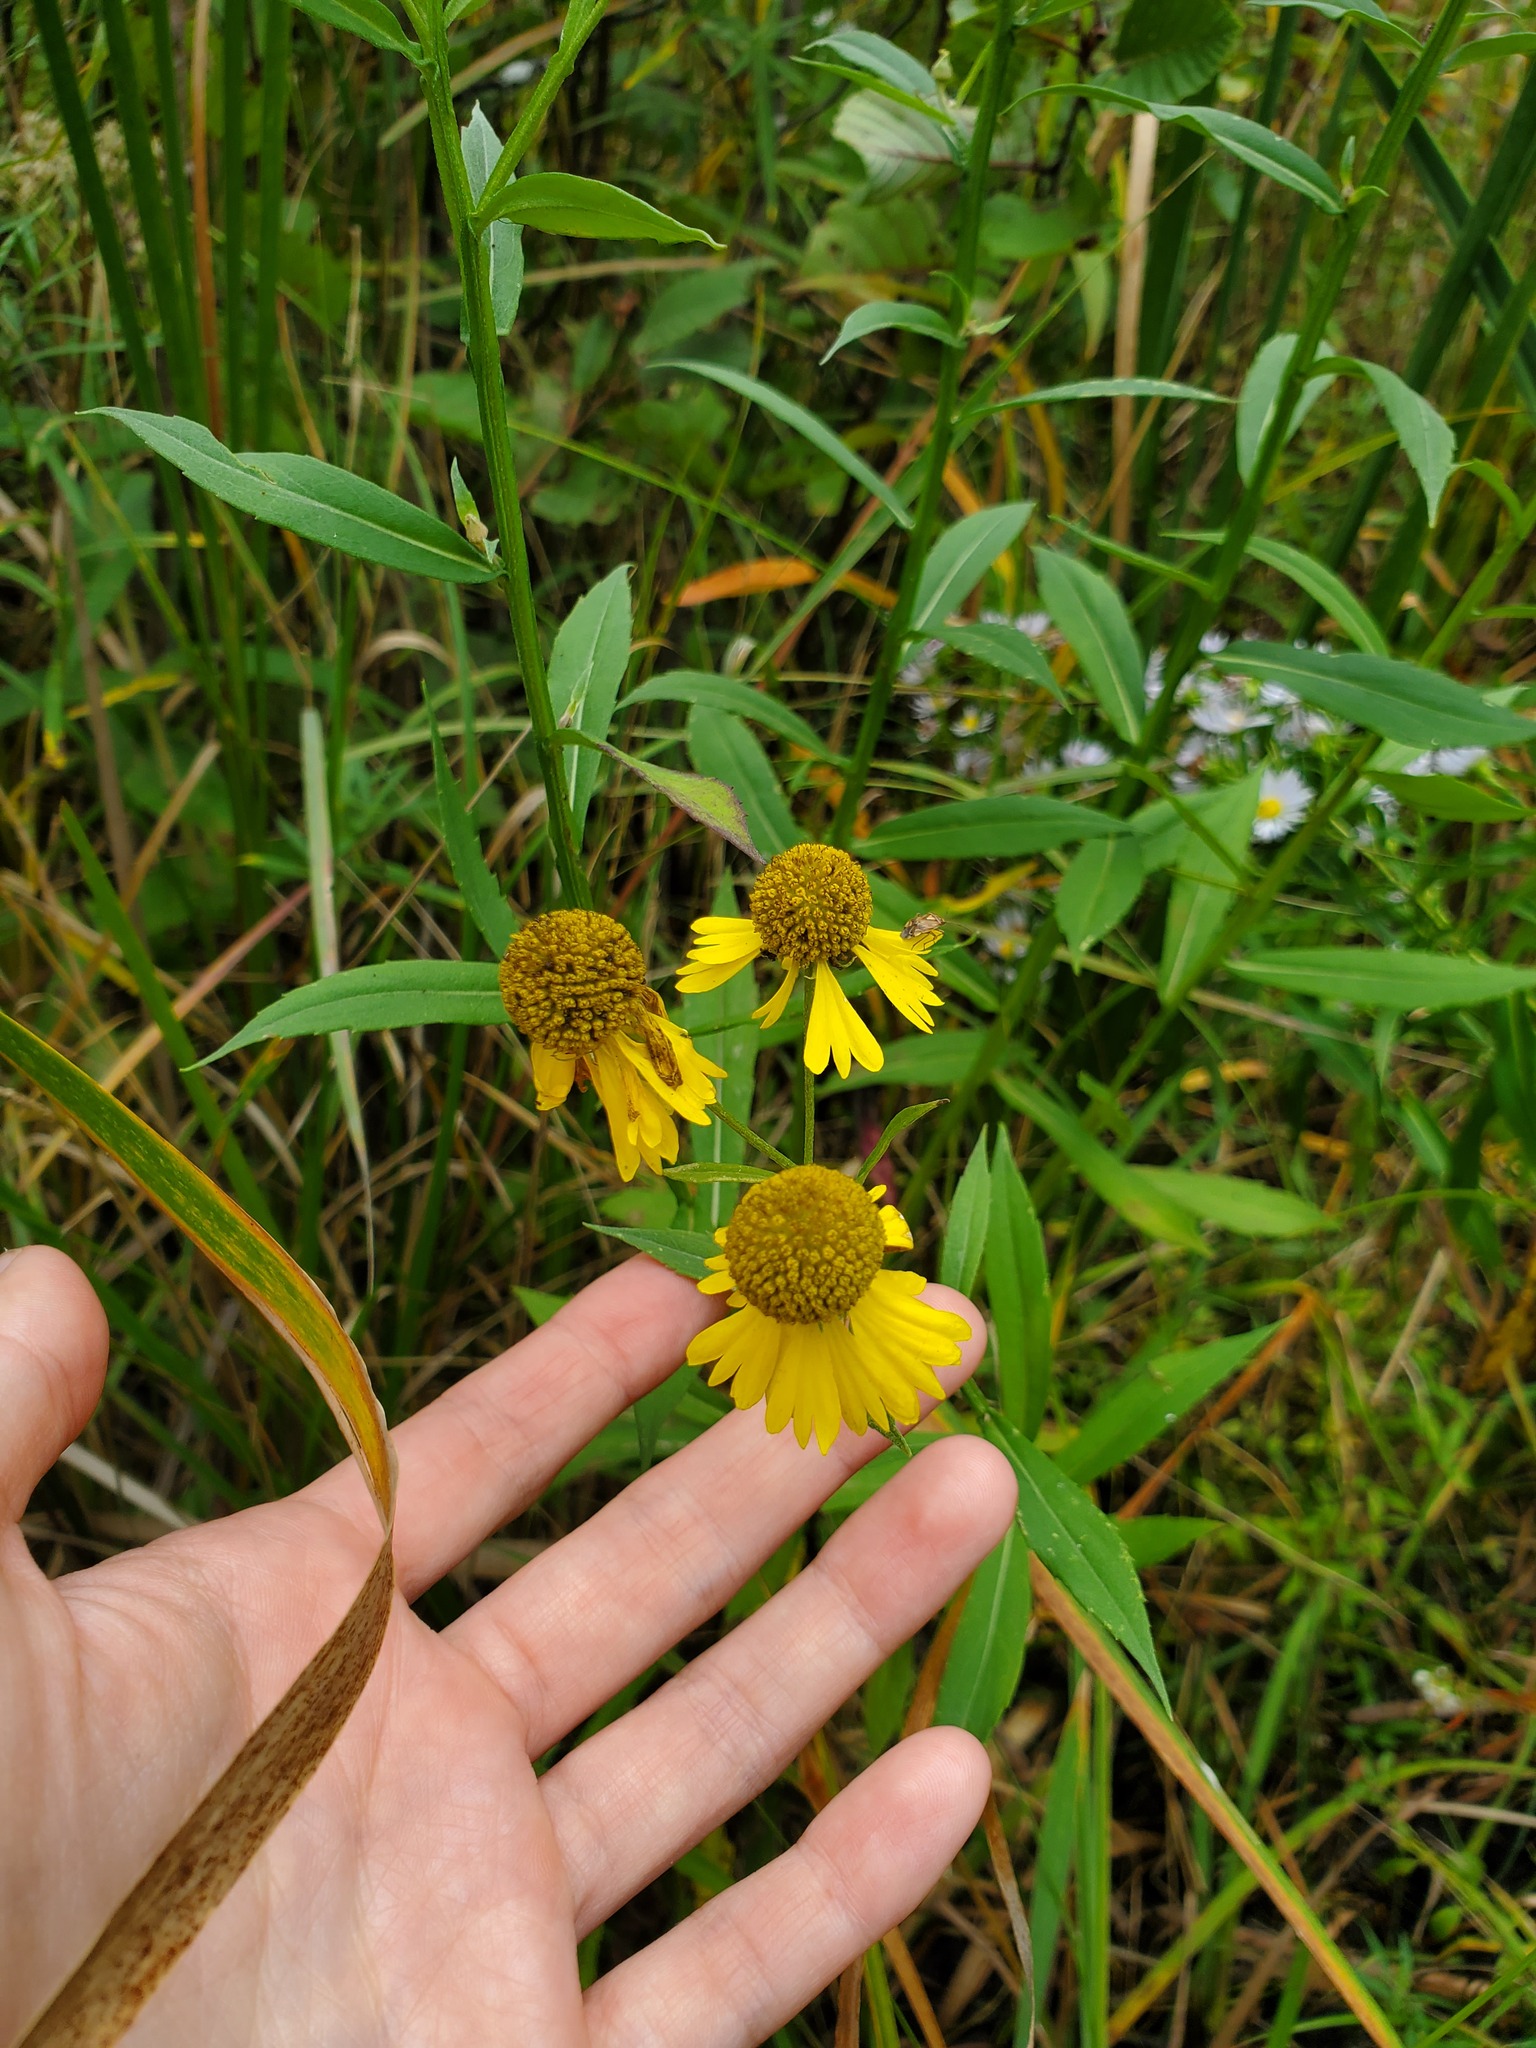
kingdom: Plantae
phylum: Tracheophyta
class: Magnoliopsida
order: Asterales
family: Asteraceae
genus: Helenium
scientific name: Helenium autumnale
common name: Sneezeweed
